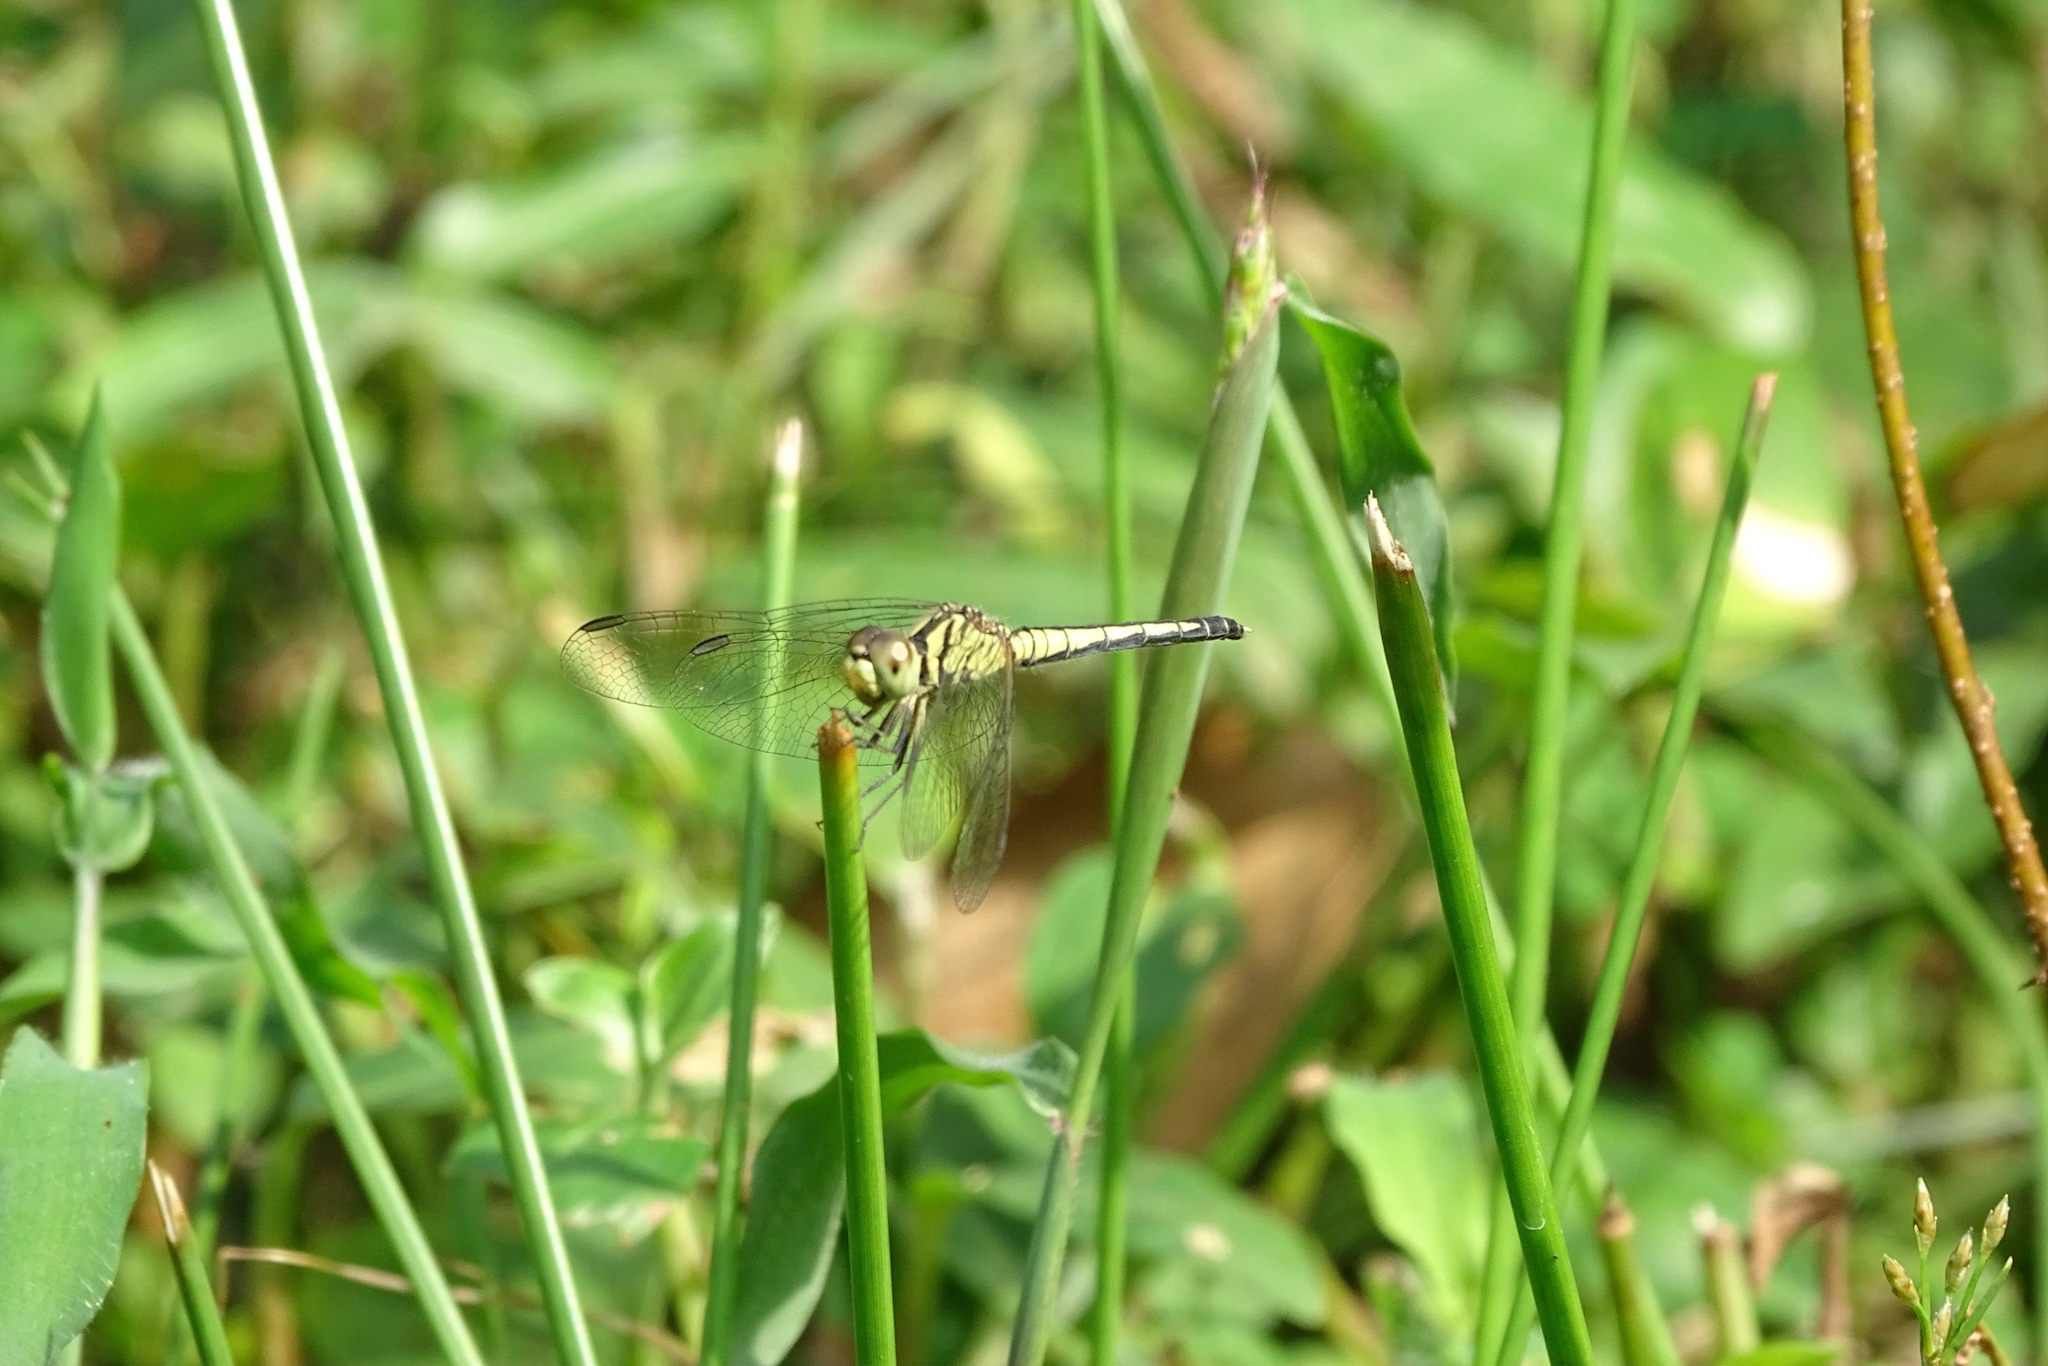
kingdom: Animalia
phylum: Arthropoda
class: Insecta
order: Odonata
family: Libellulidae
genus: Diplacodes
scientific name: Diplacodes nebulosa
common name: Black-tipped percher
